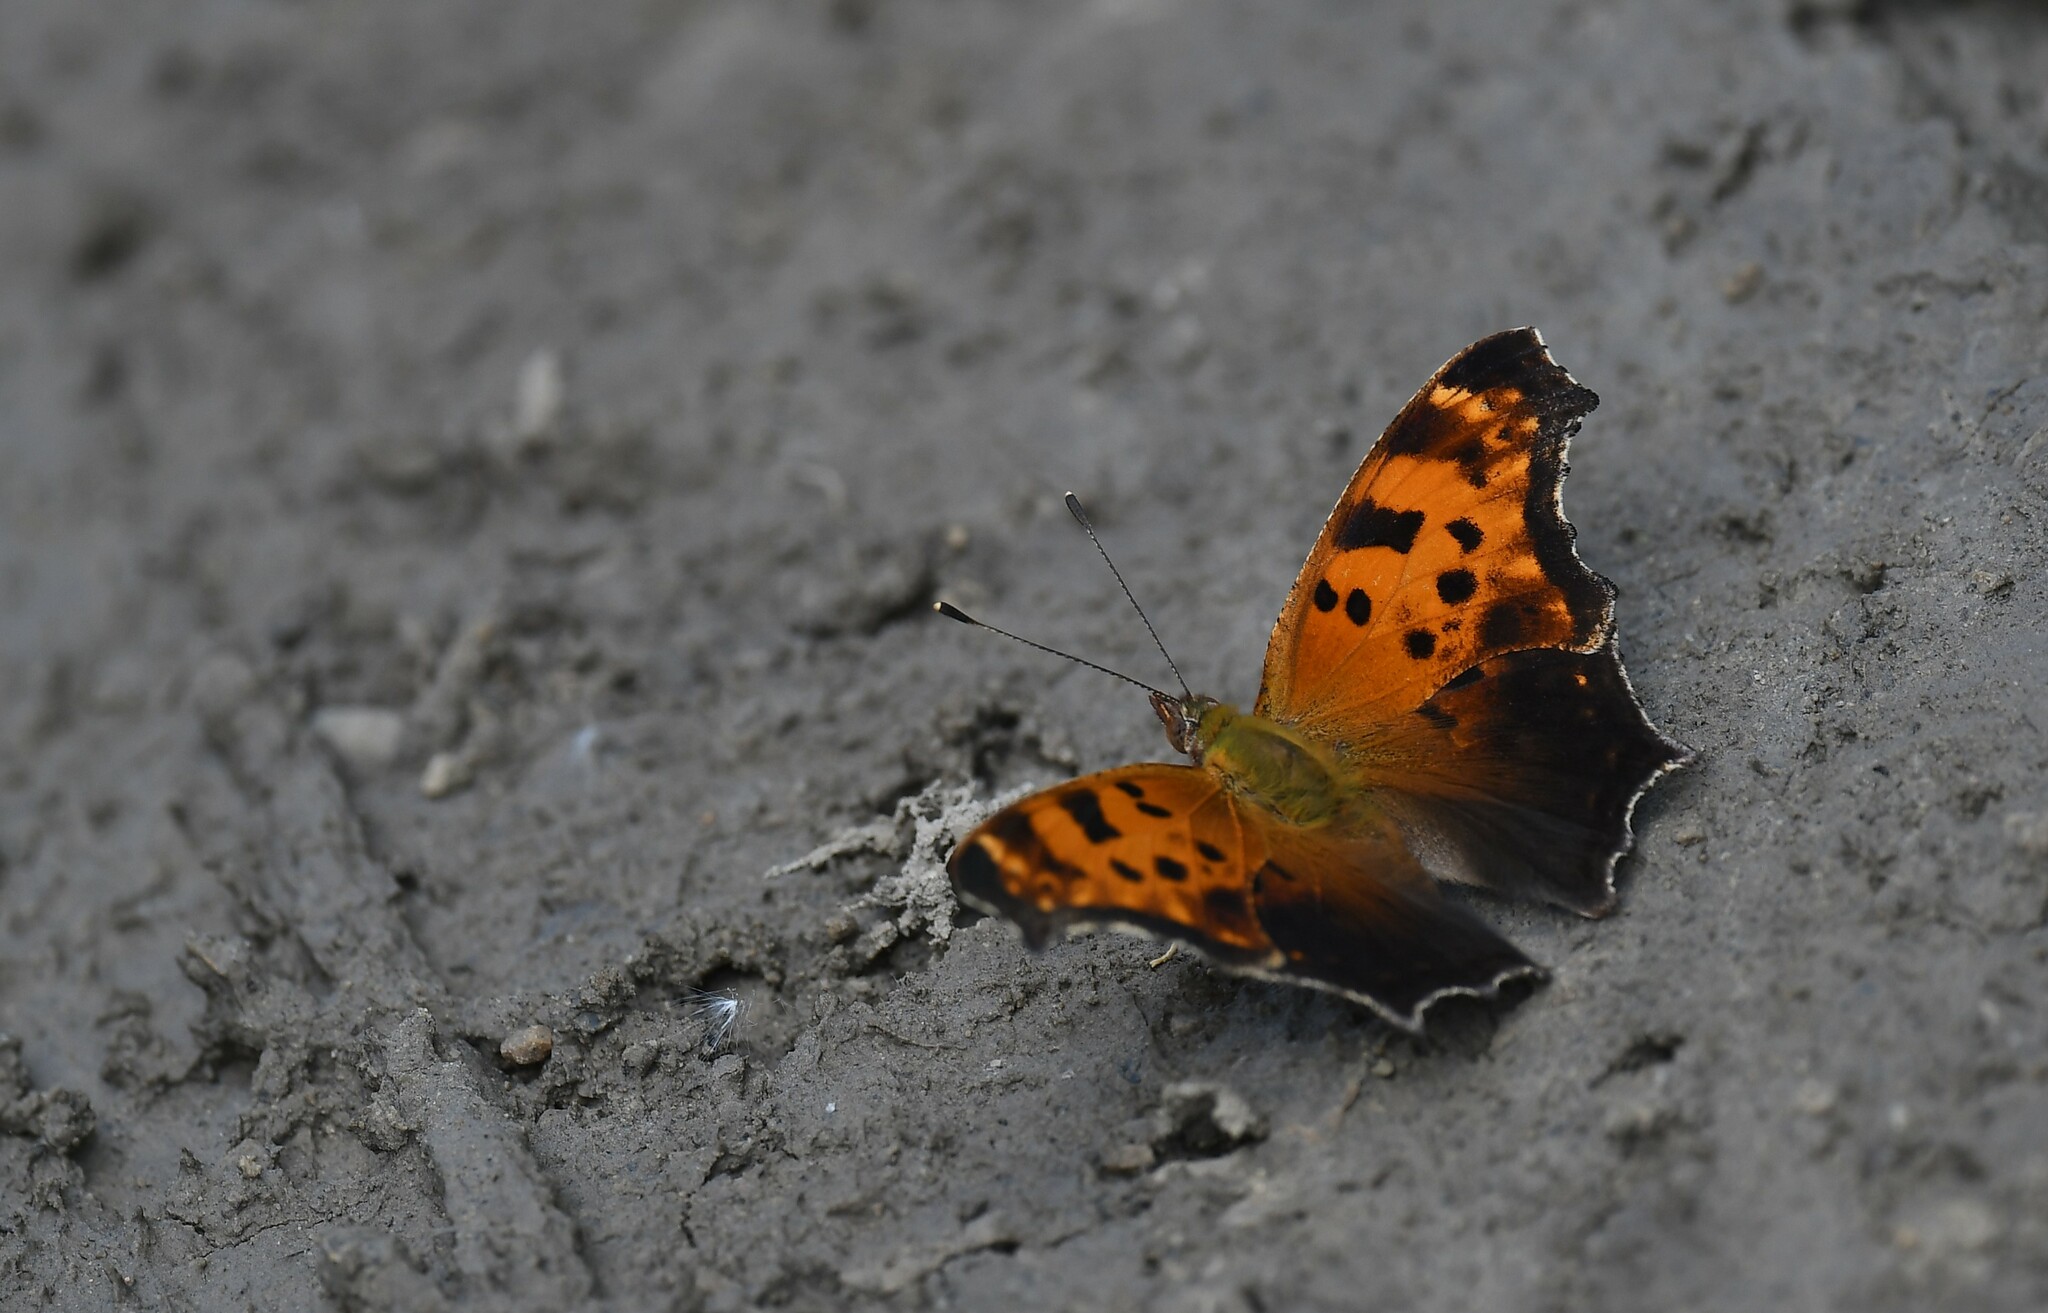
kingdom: Animalia
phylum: Arthropoda
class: Insecta
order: Lepidoptera
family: Nymphalidae
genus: Polygonia
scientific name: Polygonia comma
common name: Eastern comma
